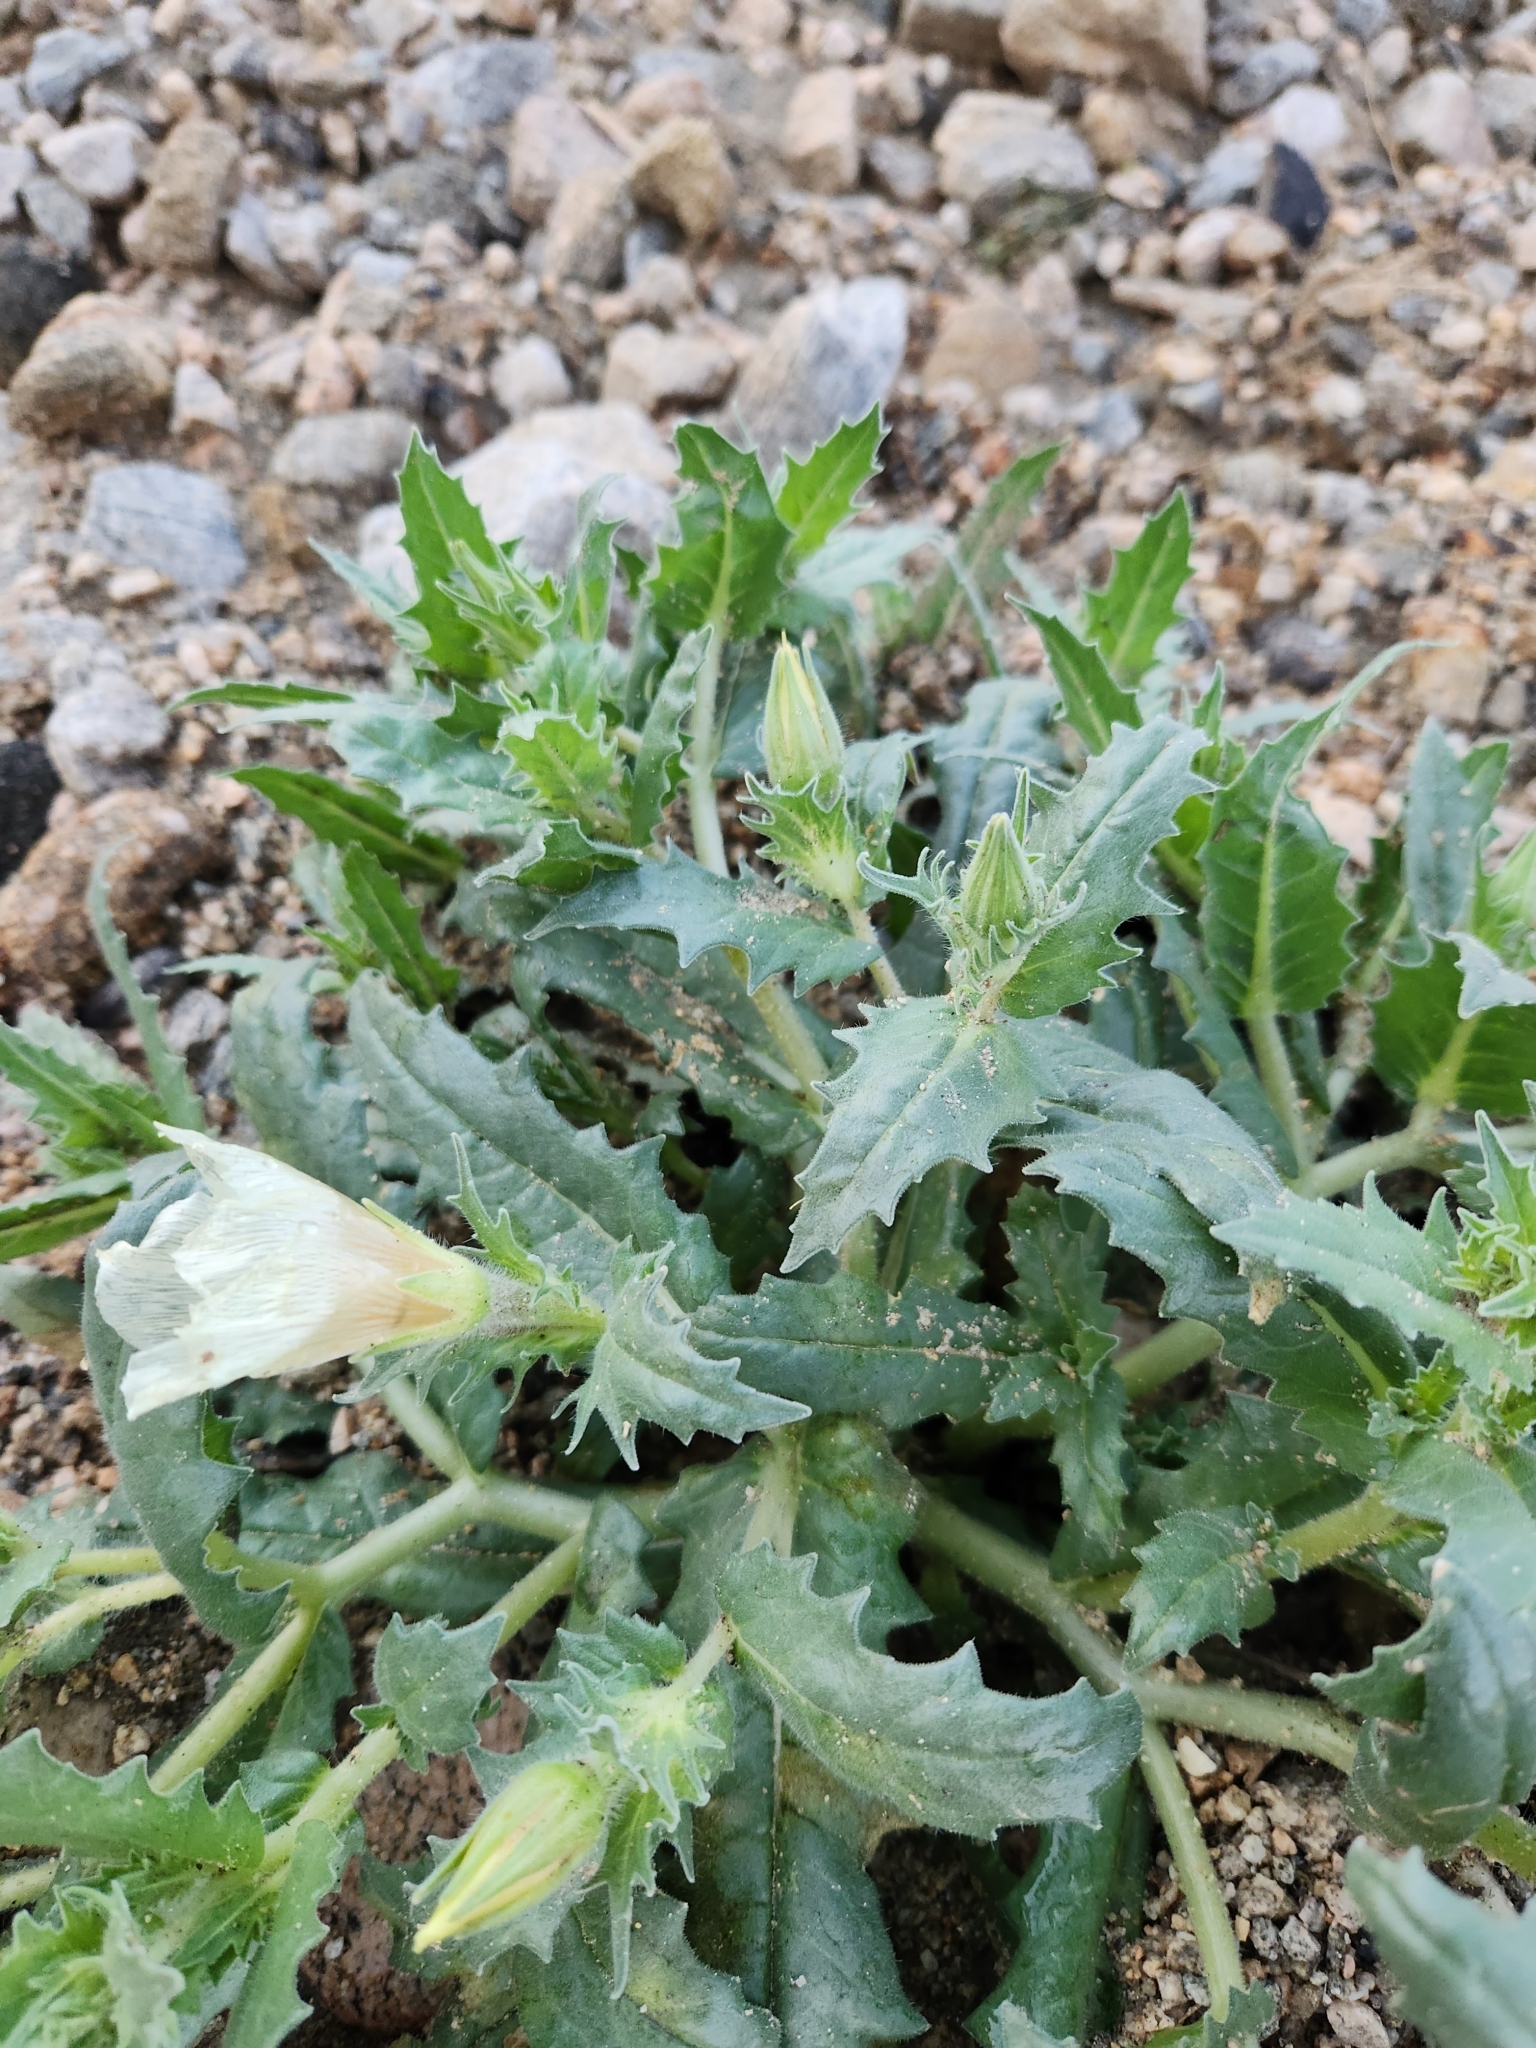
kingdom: Plantae
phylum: Tracheophyta
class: Magnoliopsida
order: Cornales
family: Loasaceae
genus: Mentzelia
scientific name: Mentzelia involucrata
